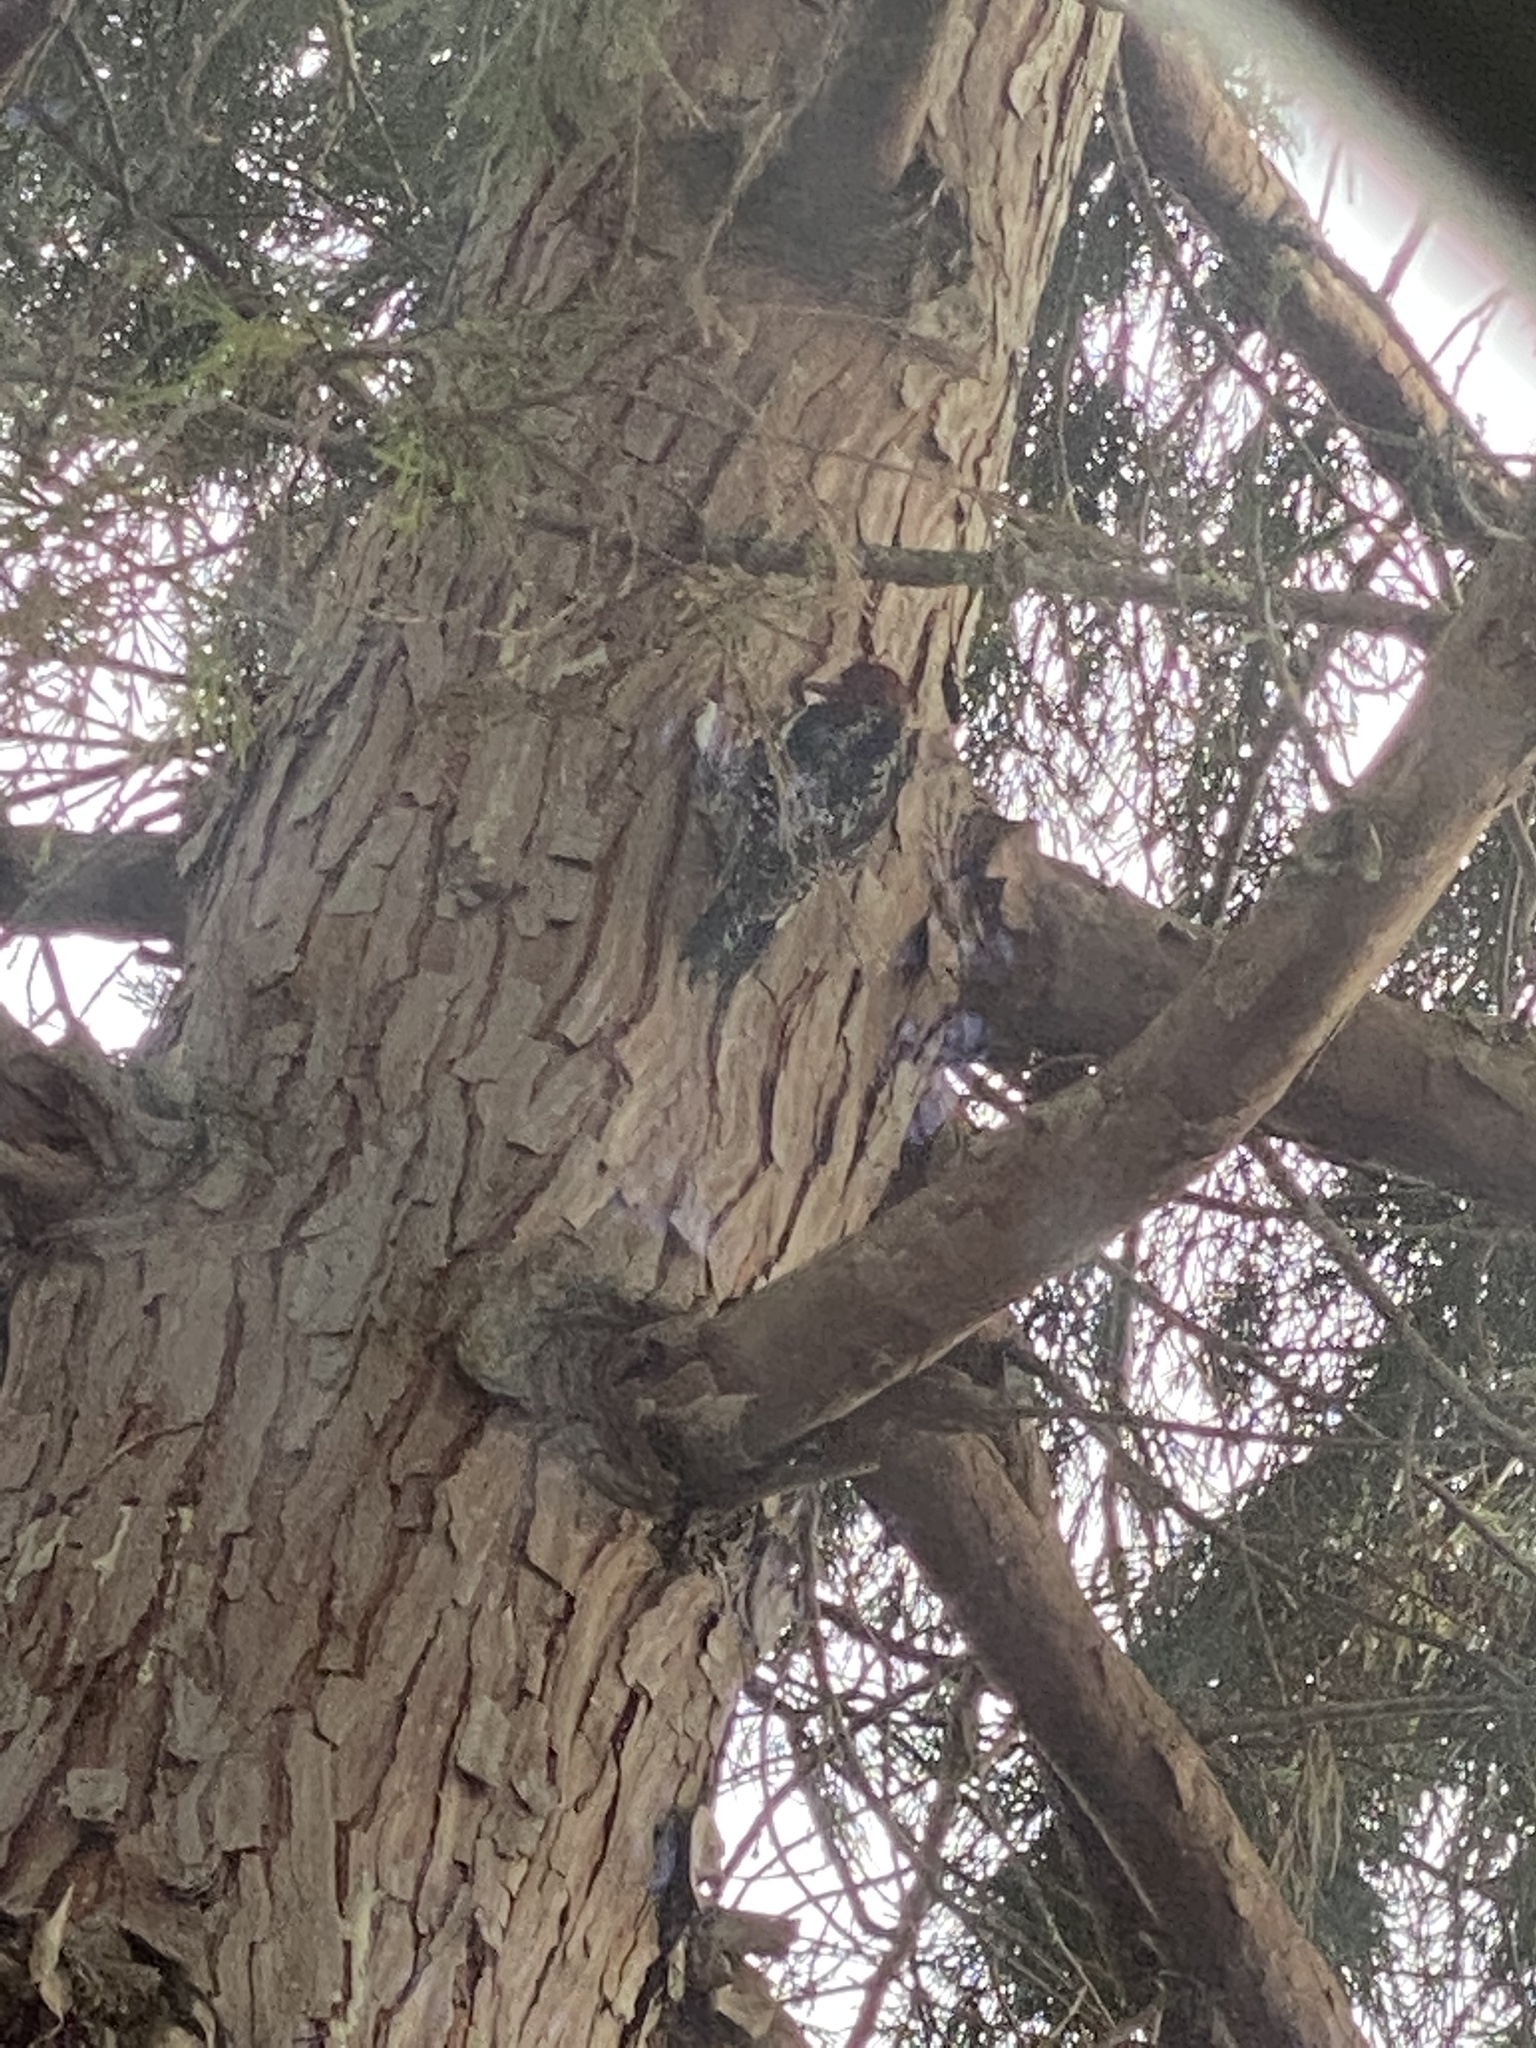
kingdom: Animalia
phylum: Chordata
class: Aves
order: Piciformes
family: Picidae
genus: Sphyrapicus
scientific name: Sphyrapicus ruber
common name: Red-breasted sapsucker
